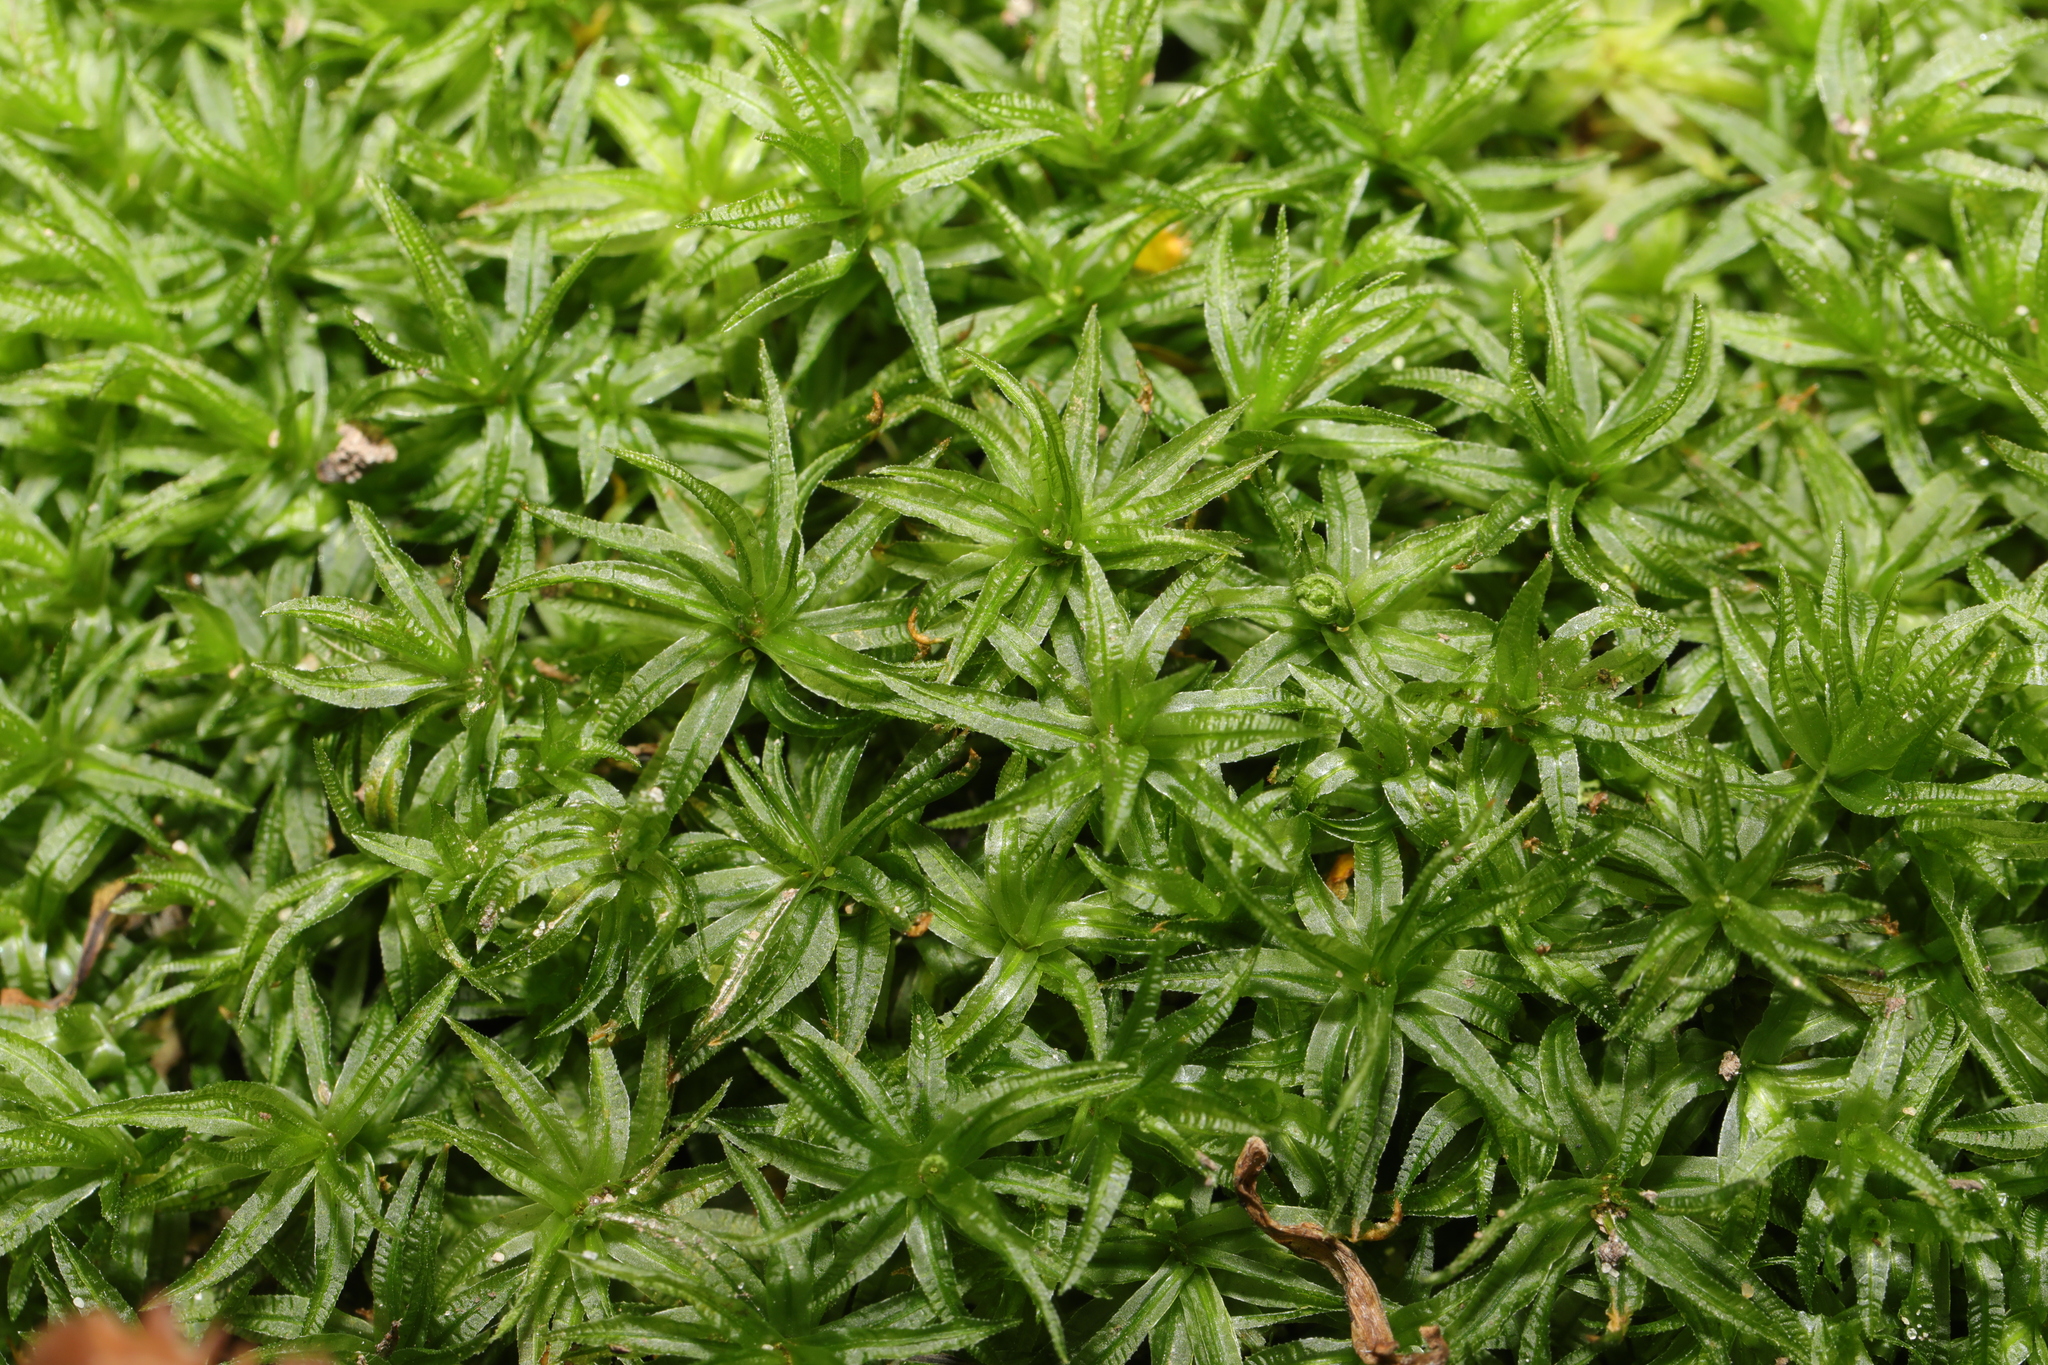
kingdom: Plantae
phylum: Bryophyta
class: Polytrichopsida
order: Polytrichales
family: Polytrichaceae
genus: Atrichum
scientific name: Atrichum undulatum
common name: Common smoothcap
